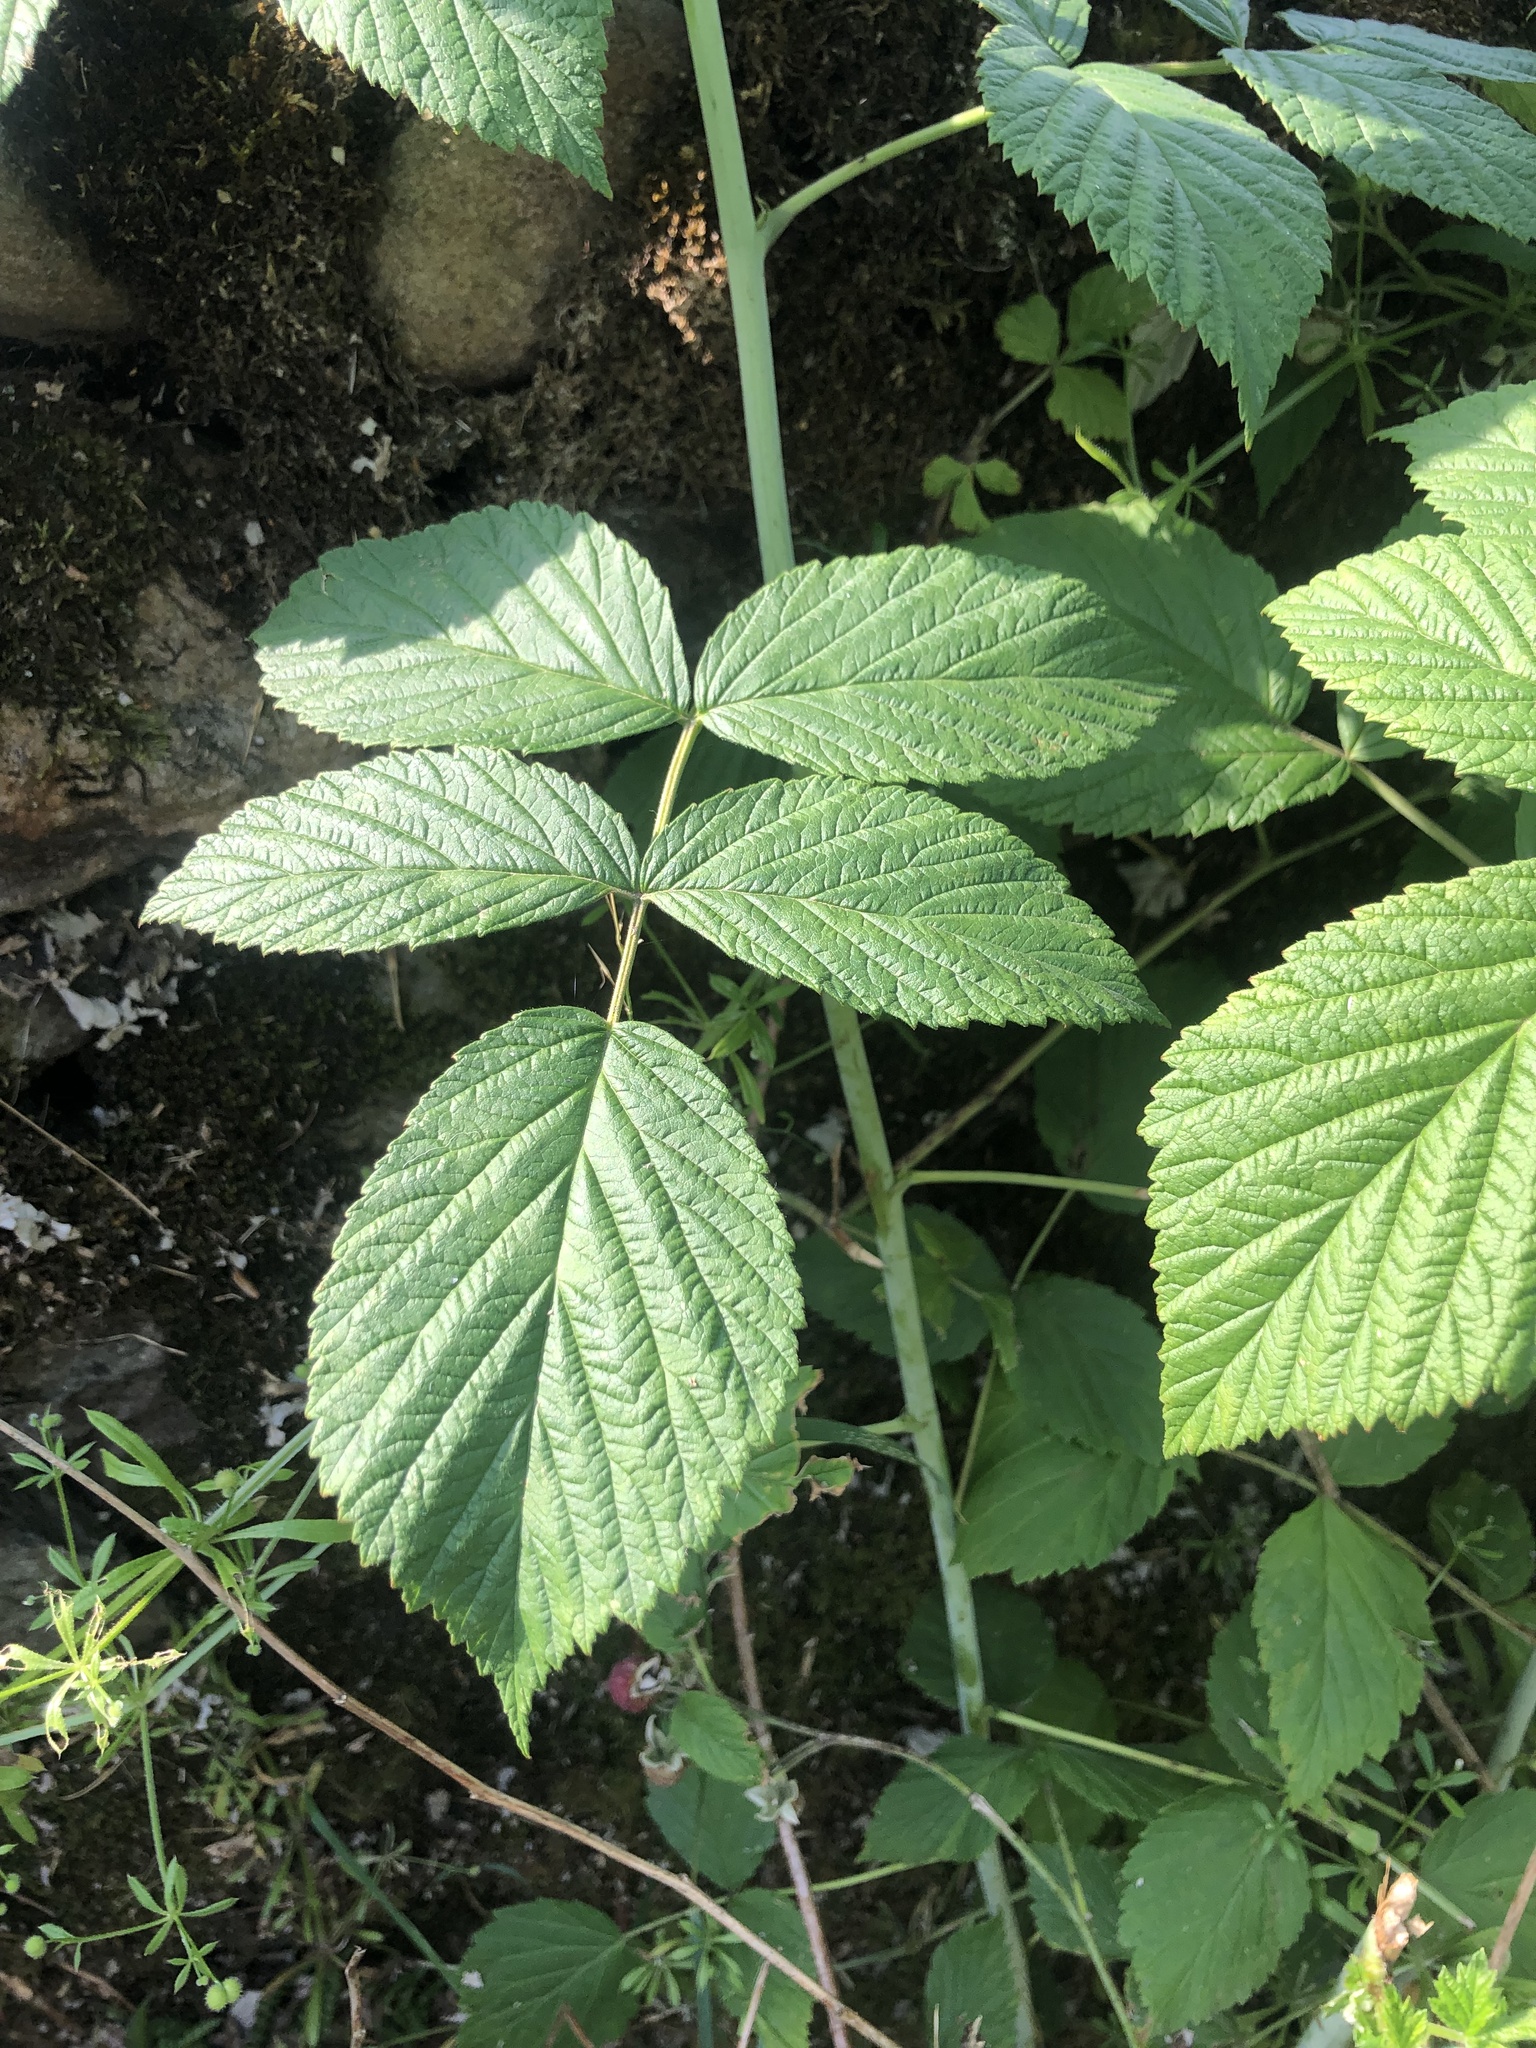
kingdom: Plantae
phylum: Tracheophyta
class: Magnoliopsida
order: Rosales
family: Rosaceae
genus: Rubus
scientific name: Rubus idaeus
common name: Raspberry
